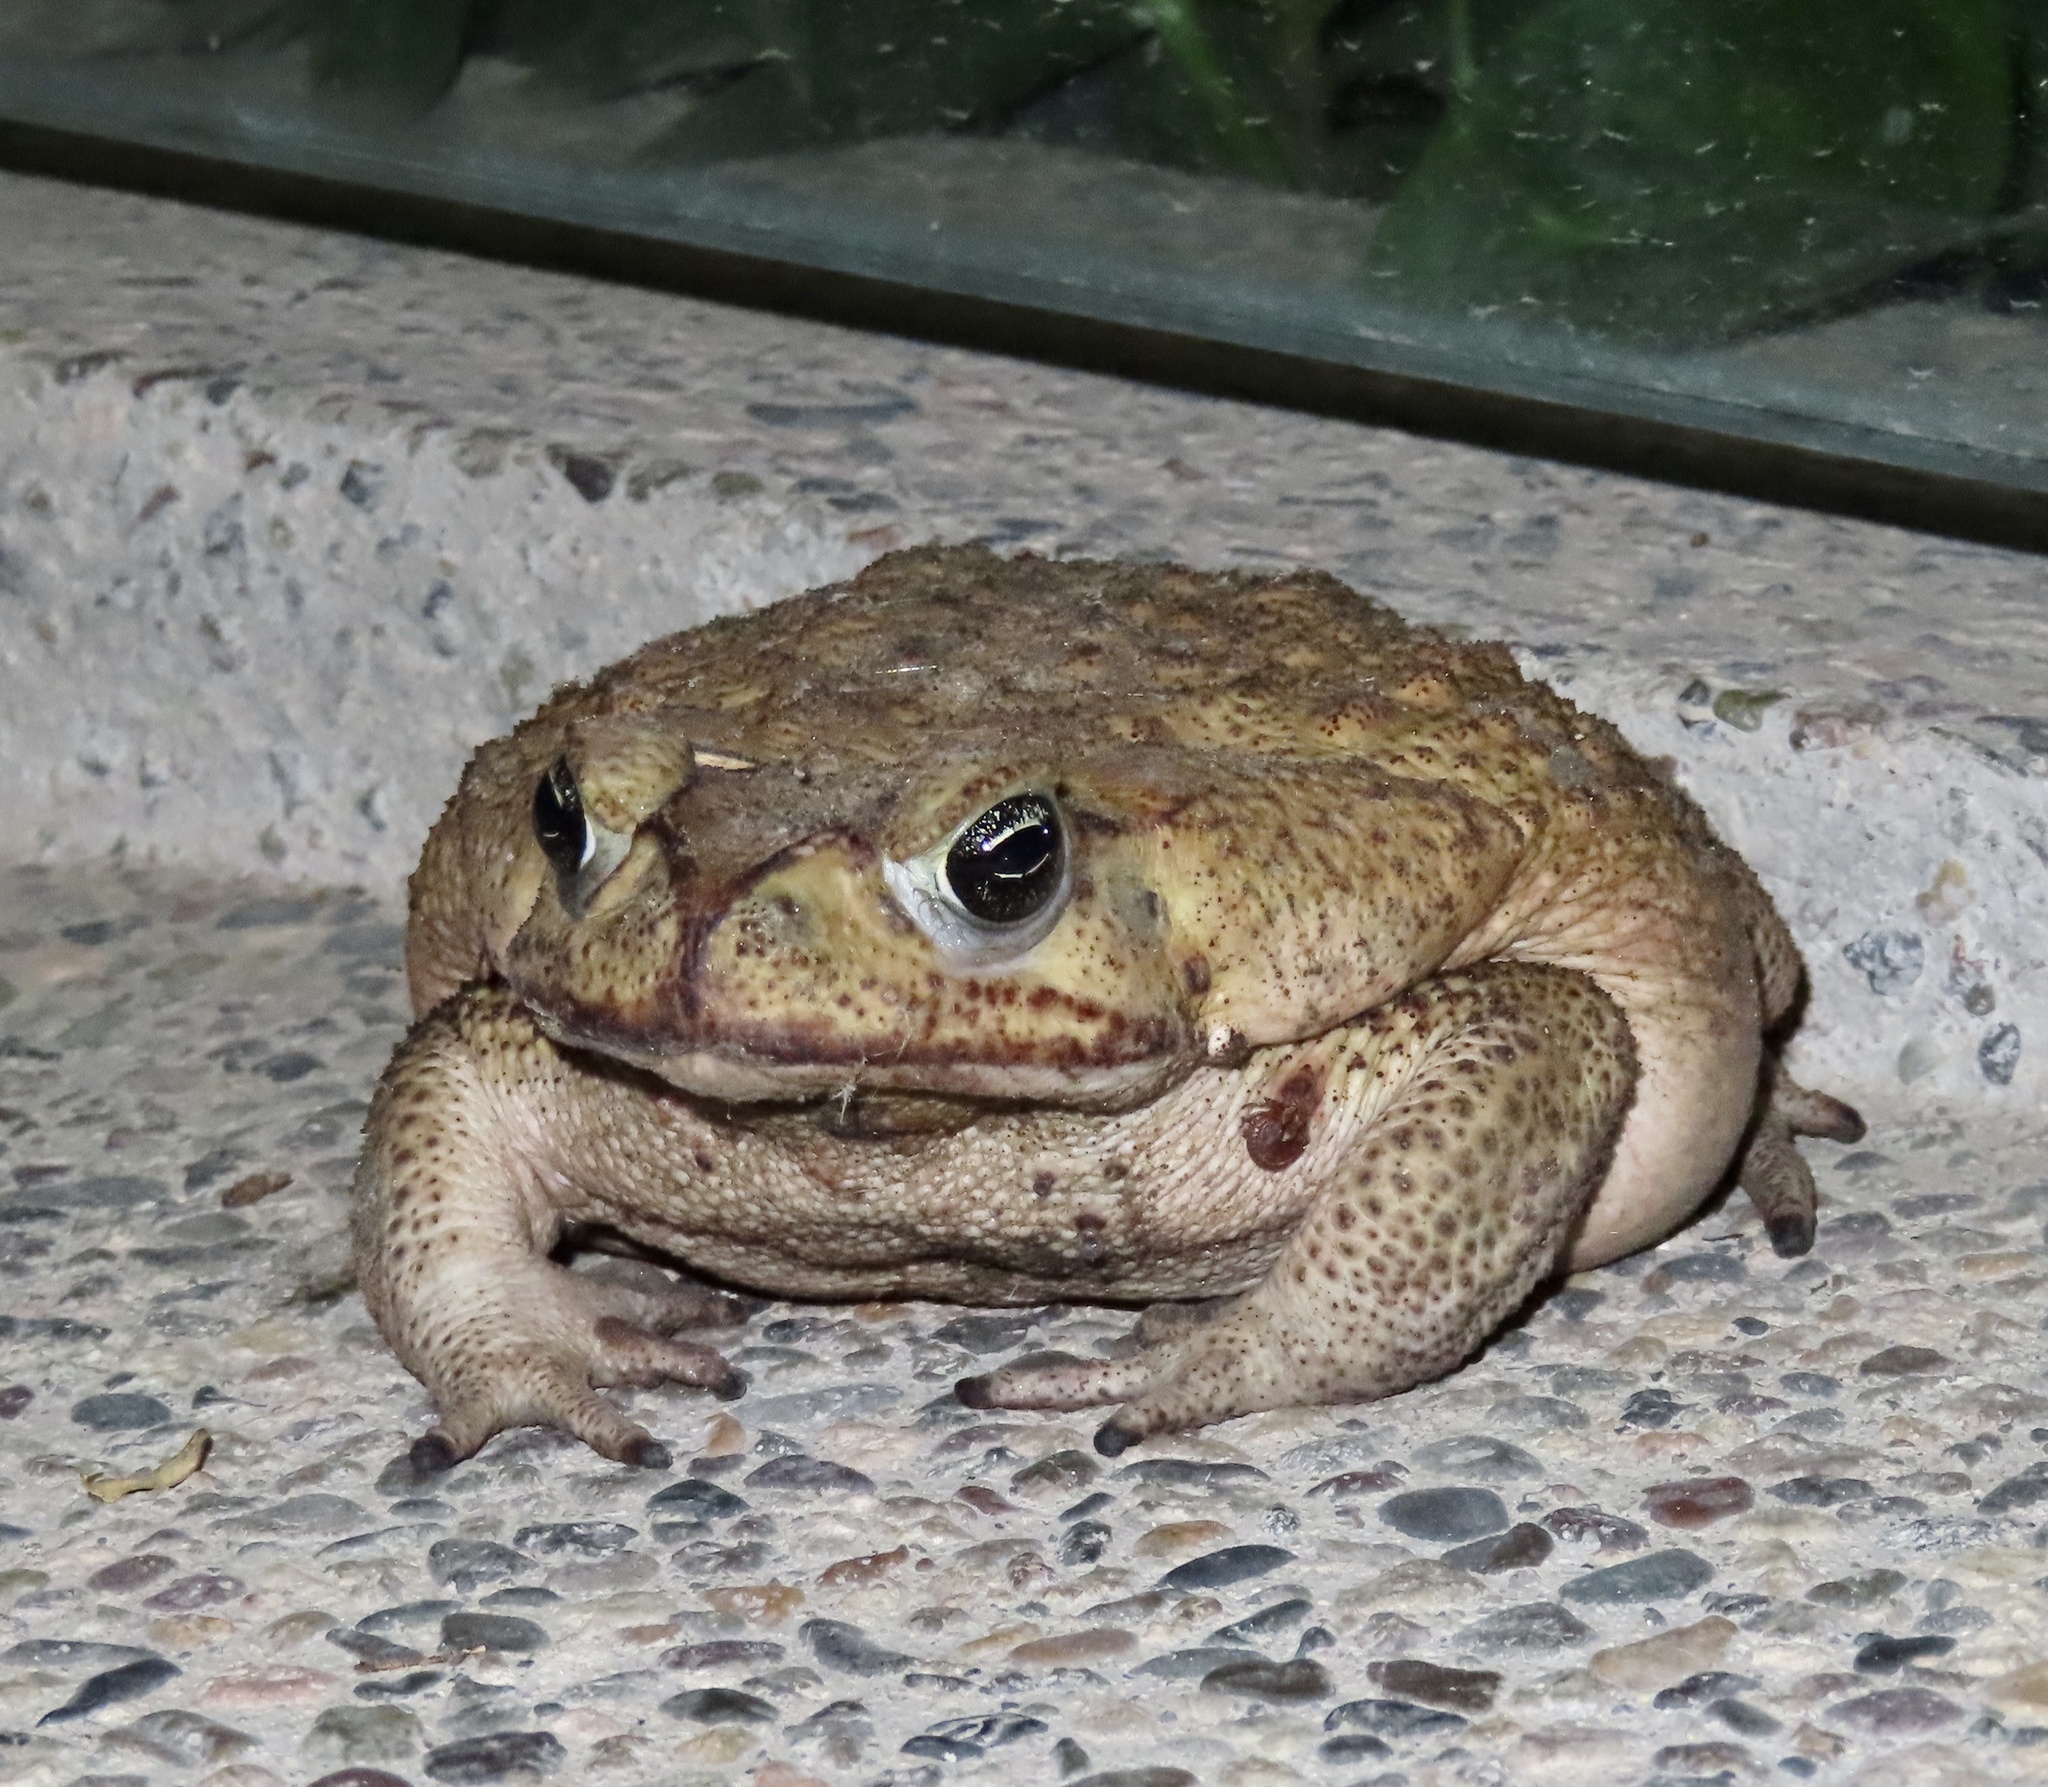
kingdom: Animalia
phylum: Chordata
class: Amphibia
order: Anura
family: Bufonidae
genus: Rhinella
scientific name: Rhinella horribilis
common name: Mesoamerican cane toad
